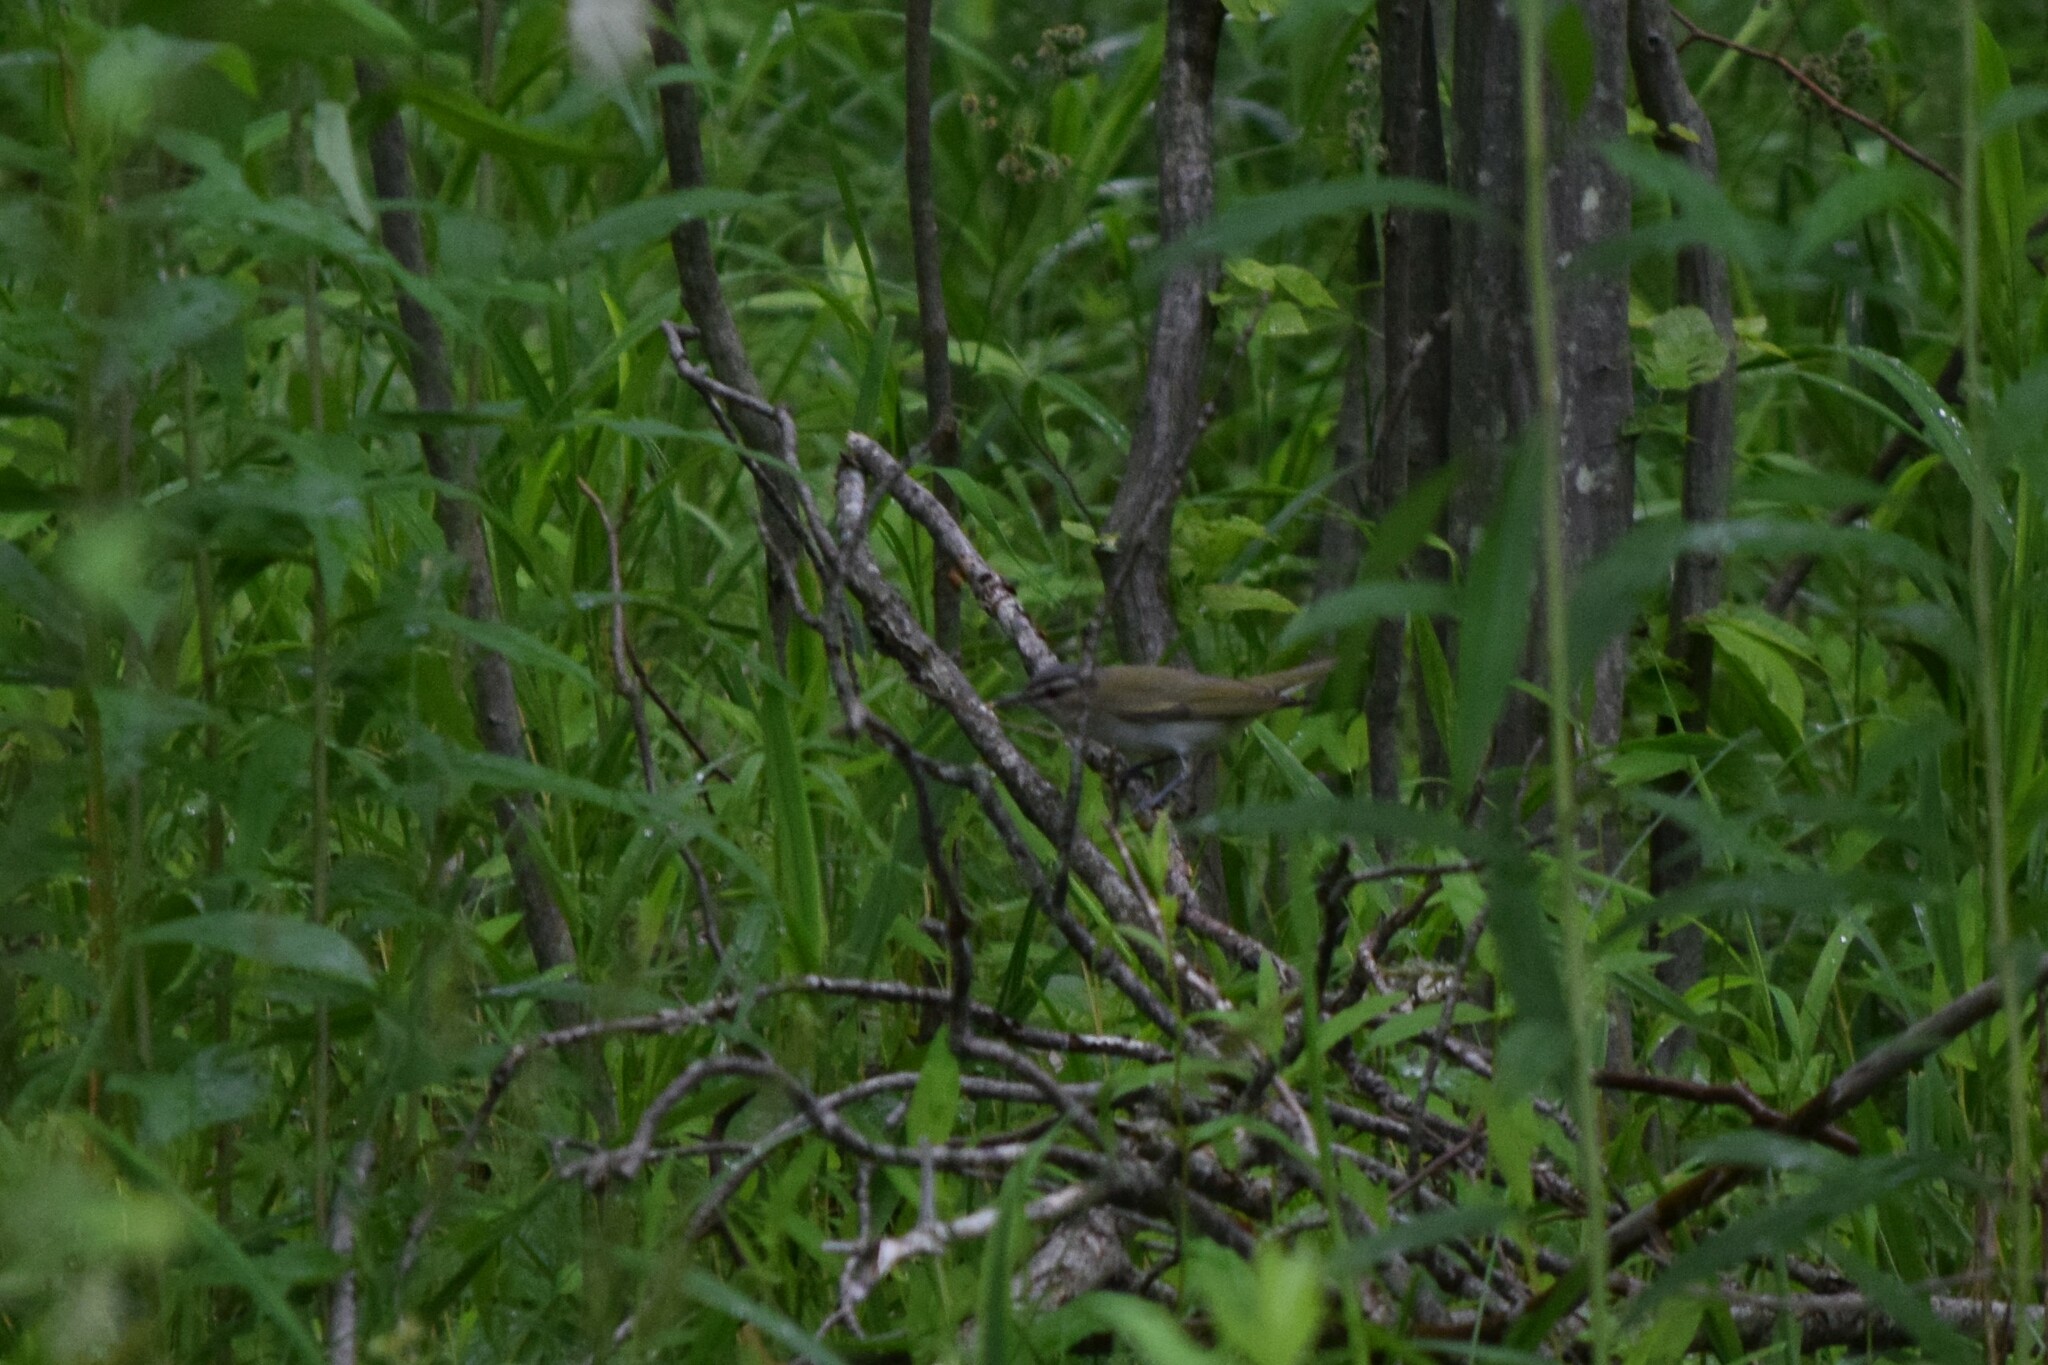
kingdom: Animalia
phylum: Chordata
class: Aves
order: Passeriformes
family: Vireonidae
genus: Vireo
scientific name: Vireo olivaceus
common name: Red-eyed vireo
